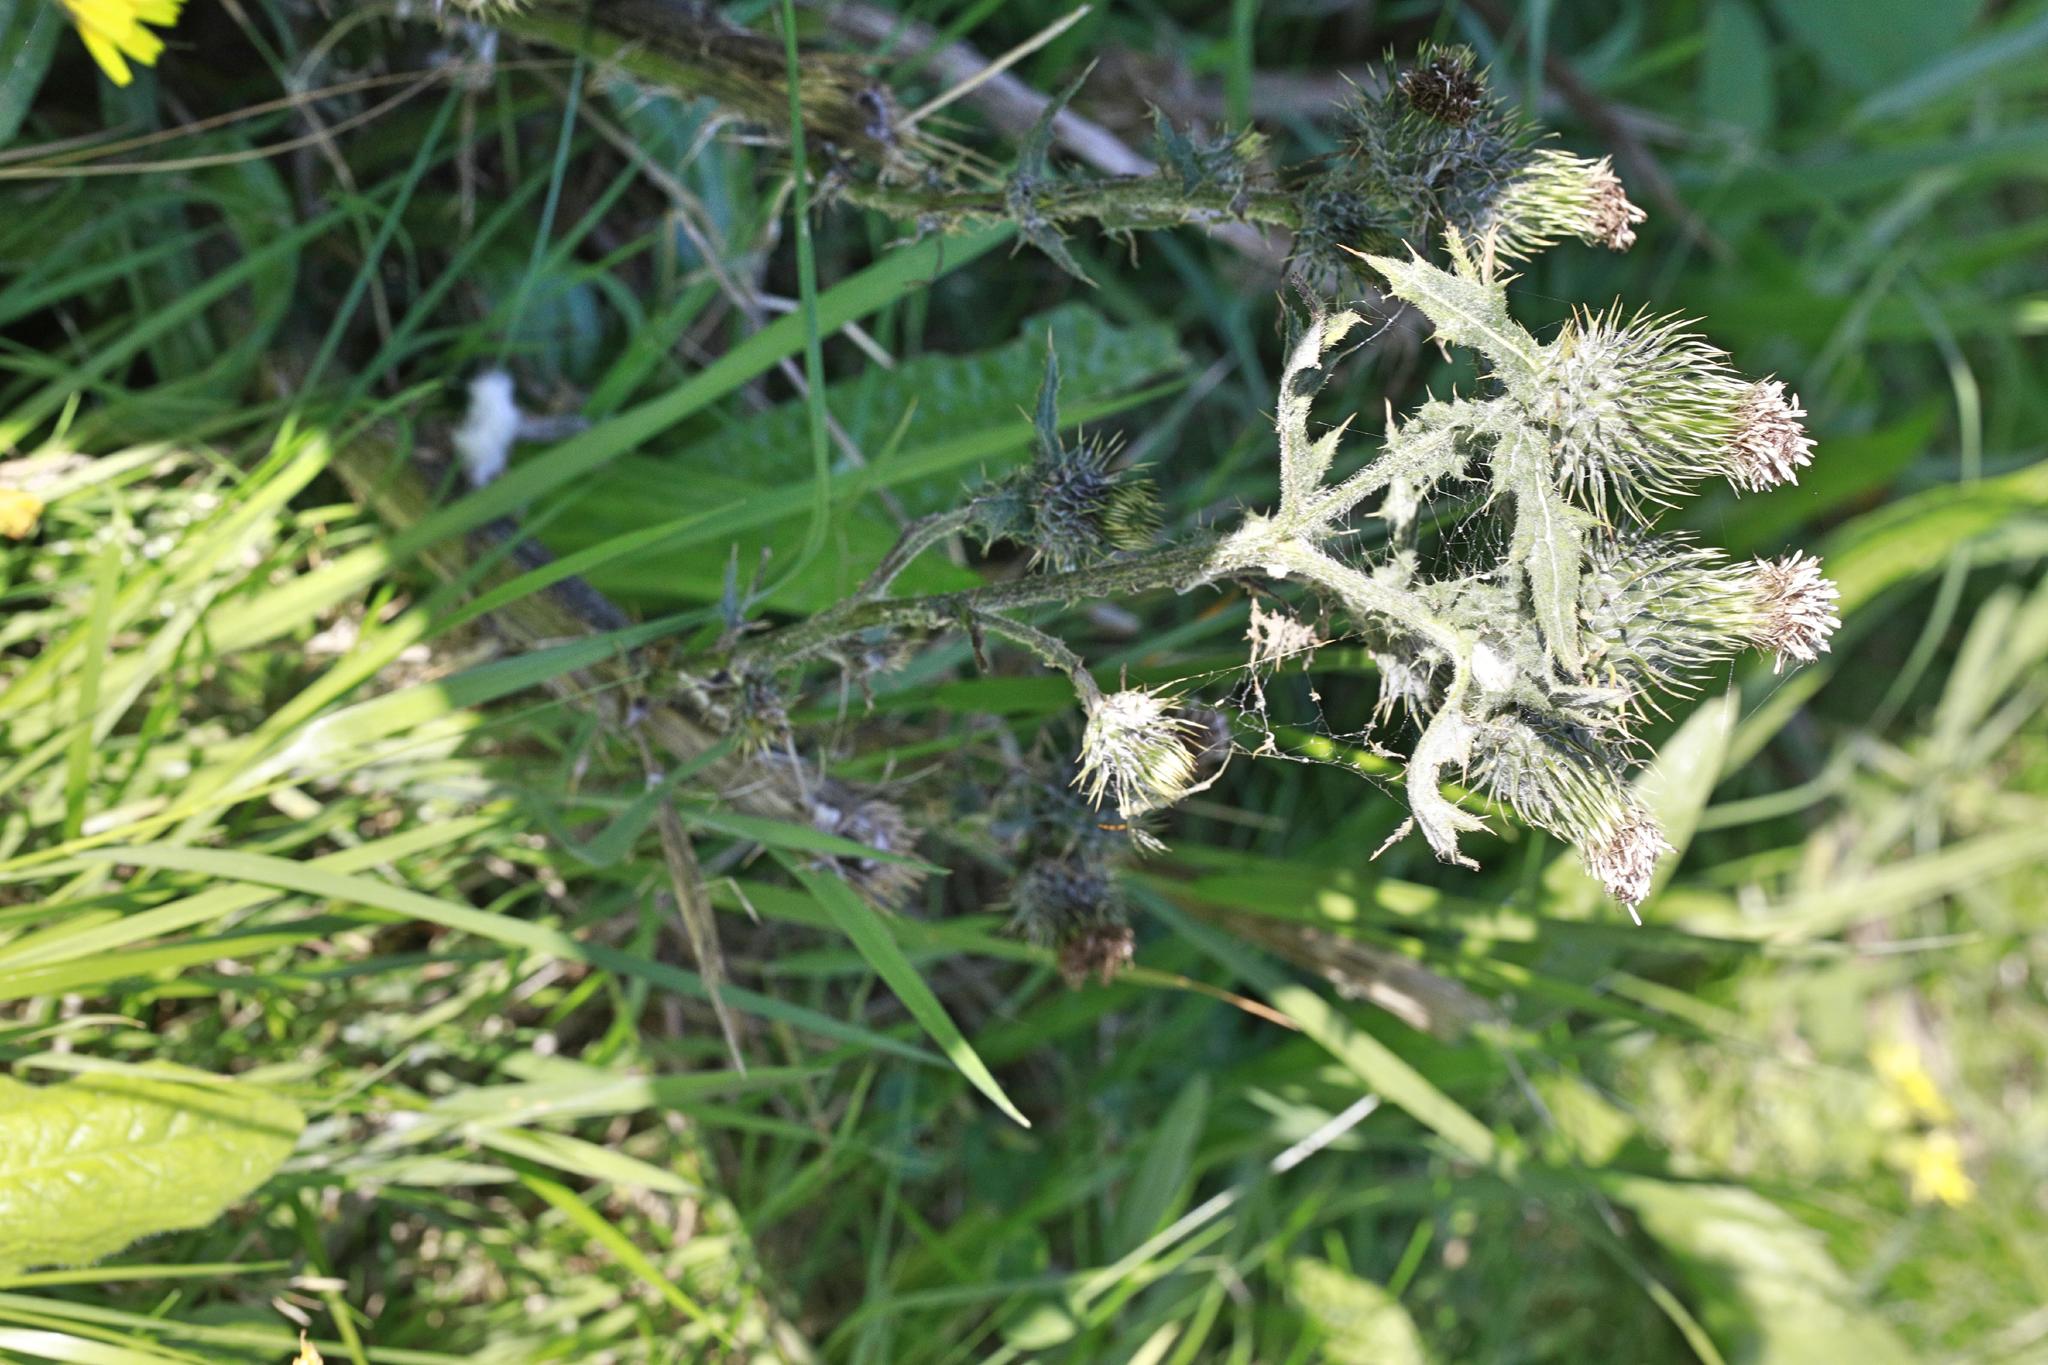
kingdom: Plantae
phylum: Tracheophyta
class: Magnoliopsida
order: Asterales
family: Asteraceae
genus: Cirsium
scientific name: Cirsium vulgare
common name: Bull thistle
